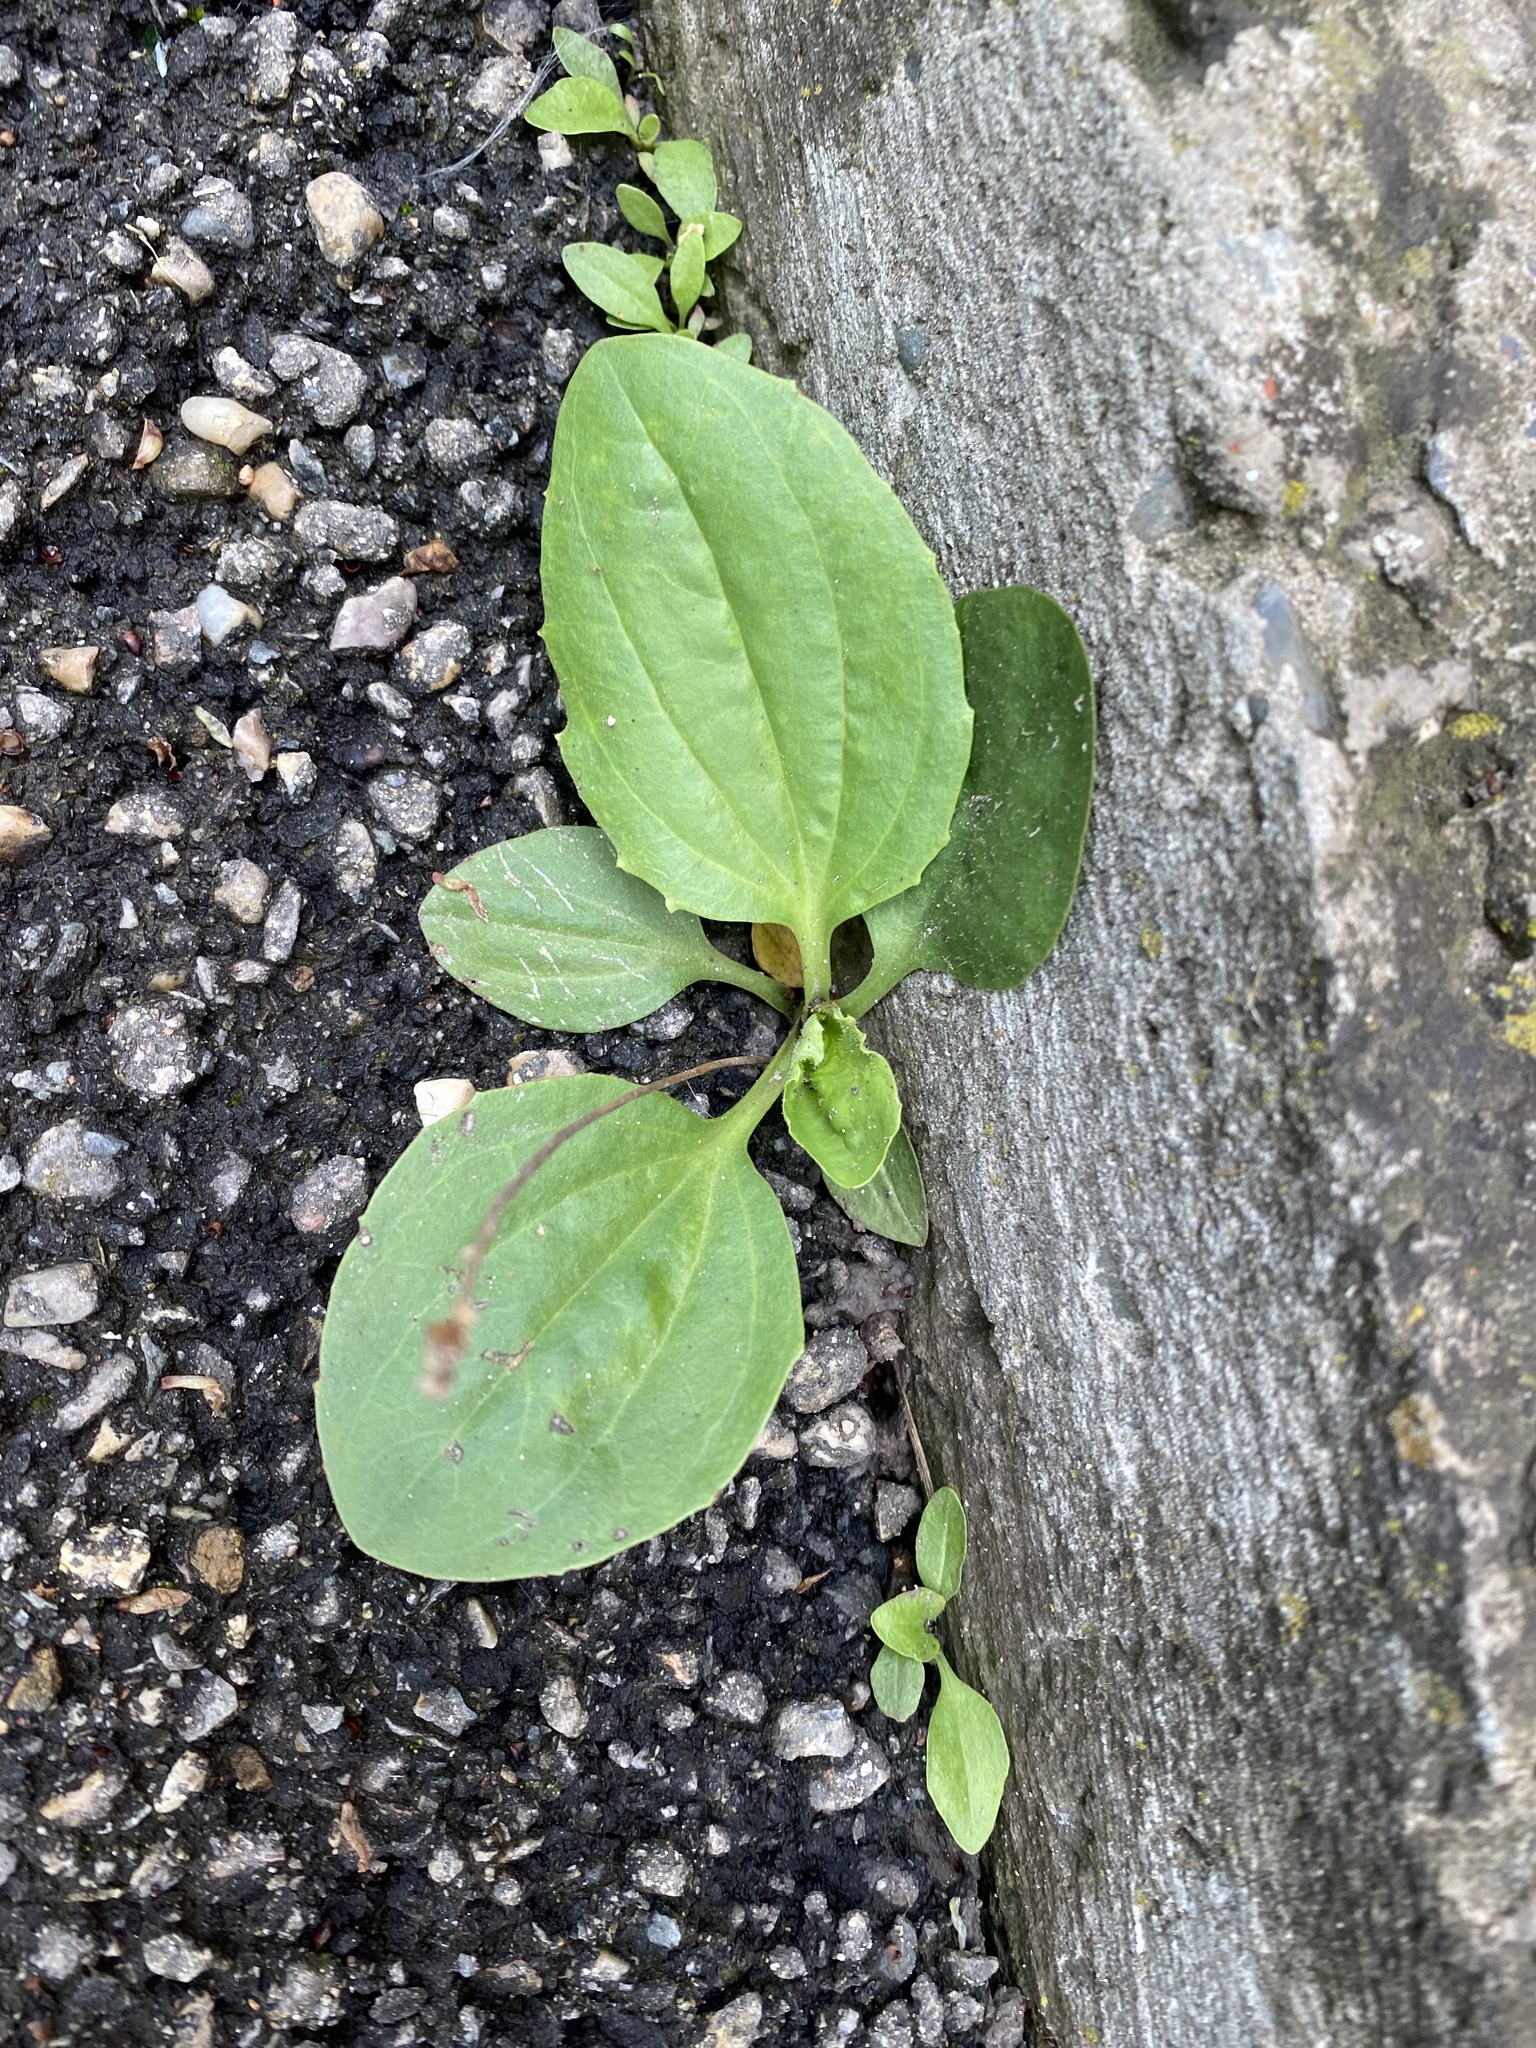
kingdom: Plantae
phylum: Tracheophyta
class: Magnoliopsida
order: Lamiales
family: Plantaginaceae
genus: Plantago
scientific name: Plantago major
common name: Common plantain
